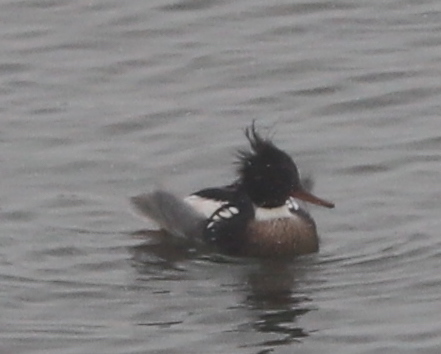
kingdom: Animalia
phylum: Chordata
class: Aves
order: Anseriformes
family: Anatidae
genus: Mergus
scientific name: Mergus serrator
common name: Red-breasted merganser
